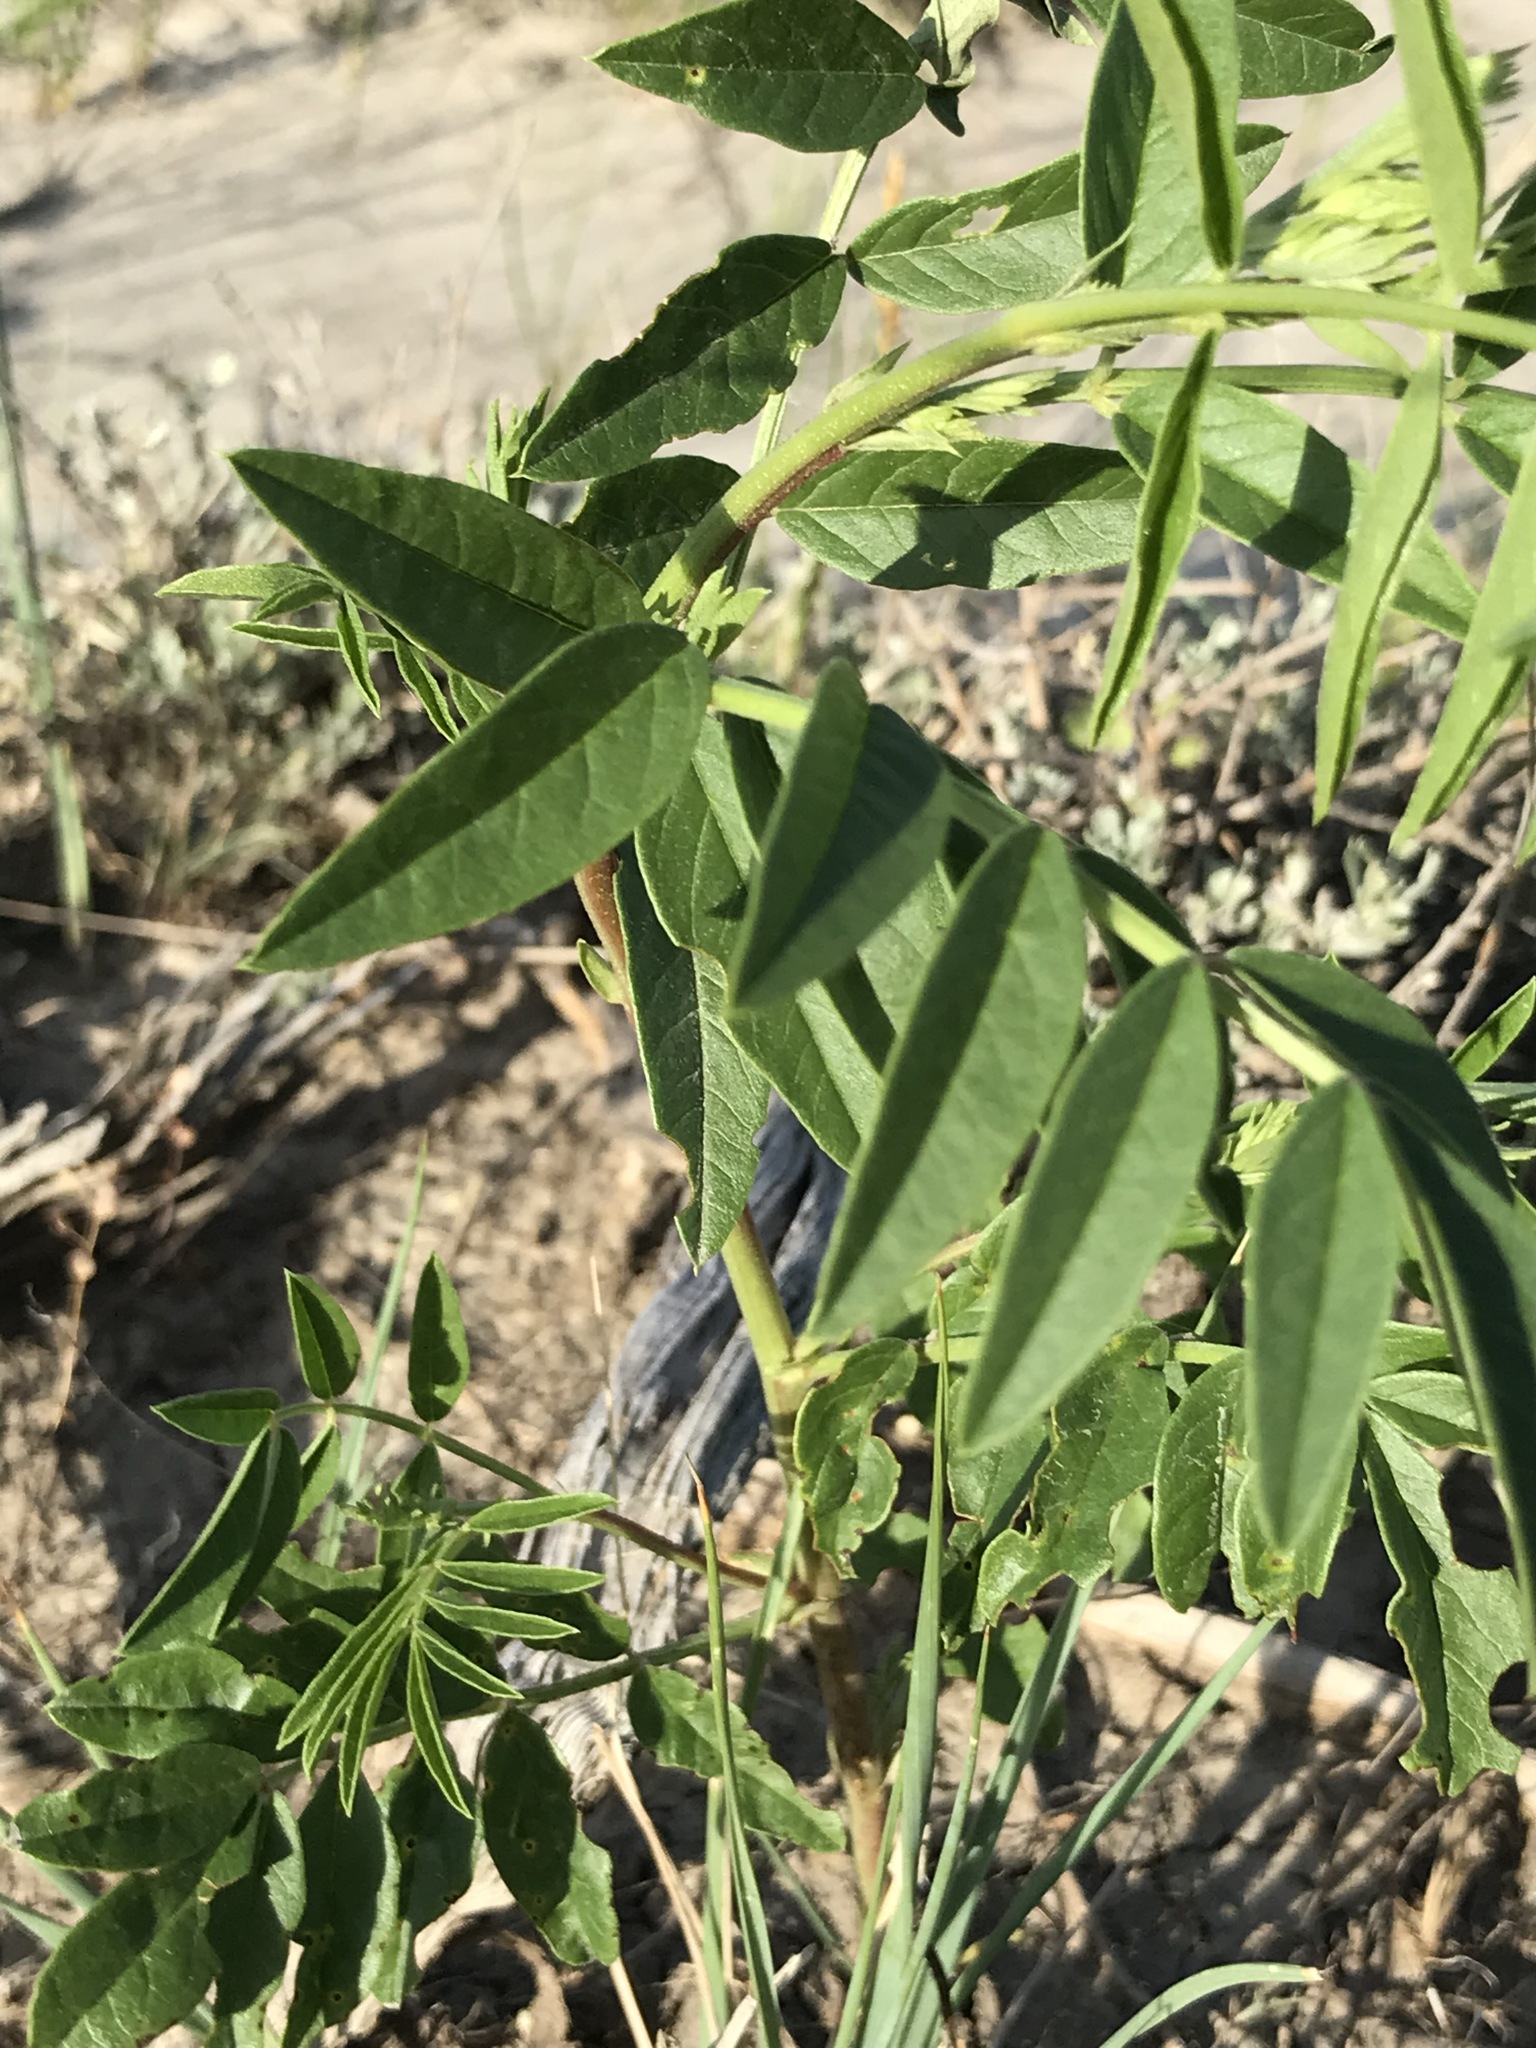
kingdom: Plantae
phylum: Tracheophyta
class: Magnoliopsida
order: Fabales
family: Fabaceae
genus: Glycyrrhiza
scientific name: Glycyrrhiza lepidota
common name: American liquorice
